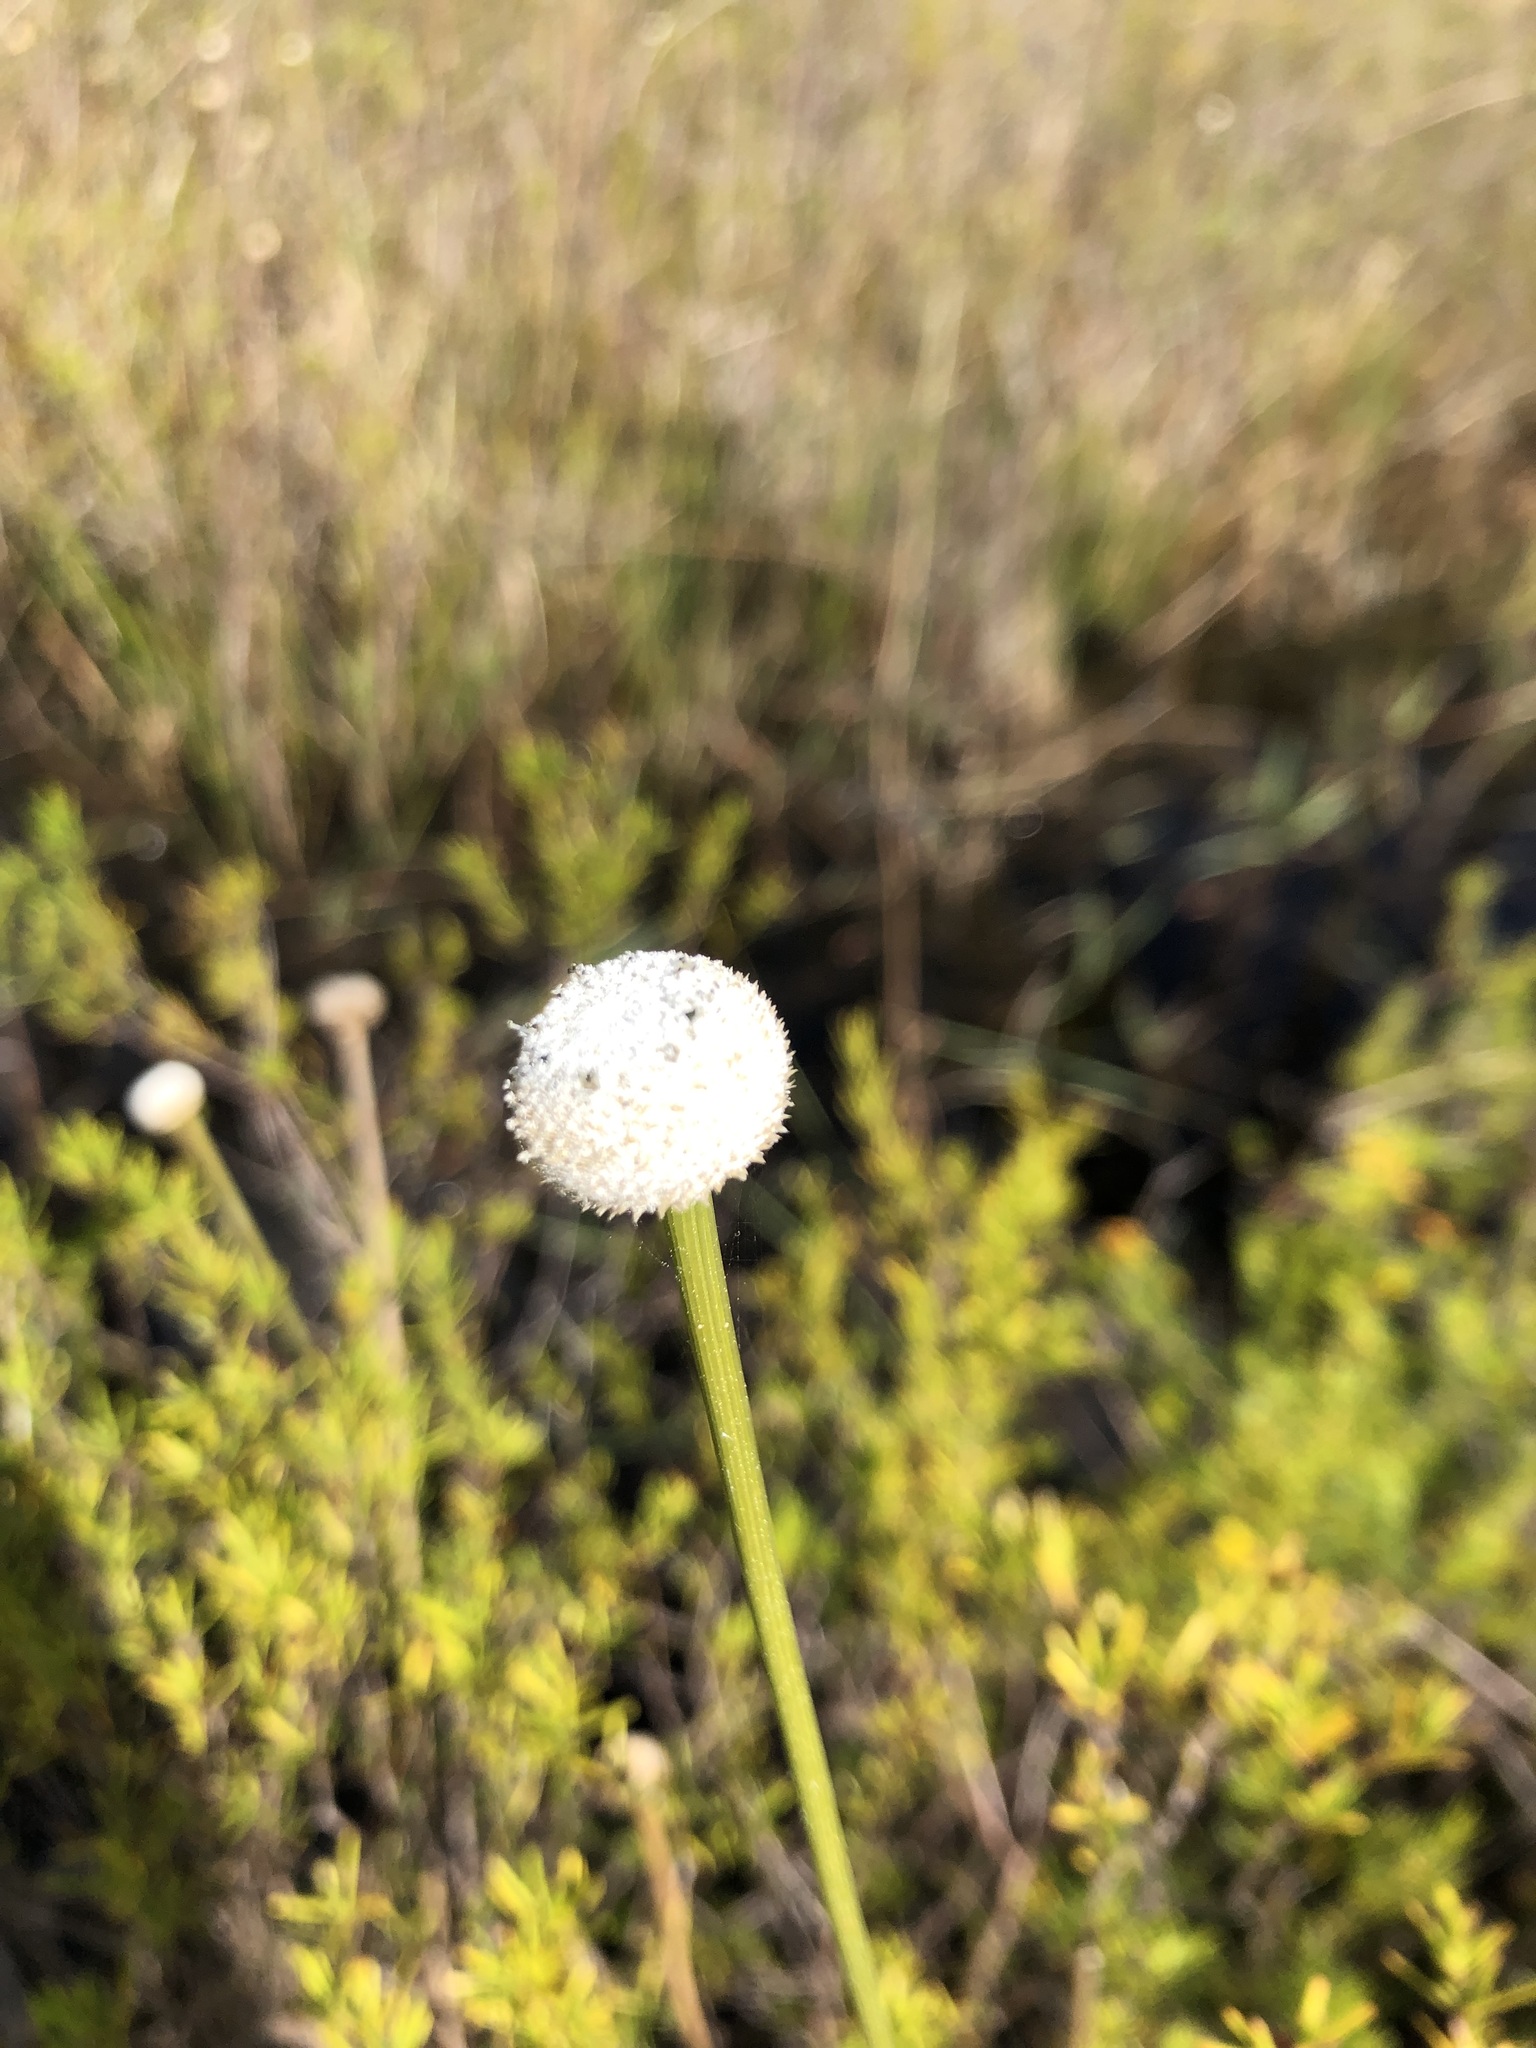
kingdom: Plantae
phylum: Tracheophyta
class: Liliopsida
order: Poales
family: Eriocaulaceae
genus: Eriocaulon
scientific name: Eriocaulon decangulare
